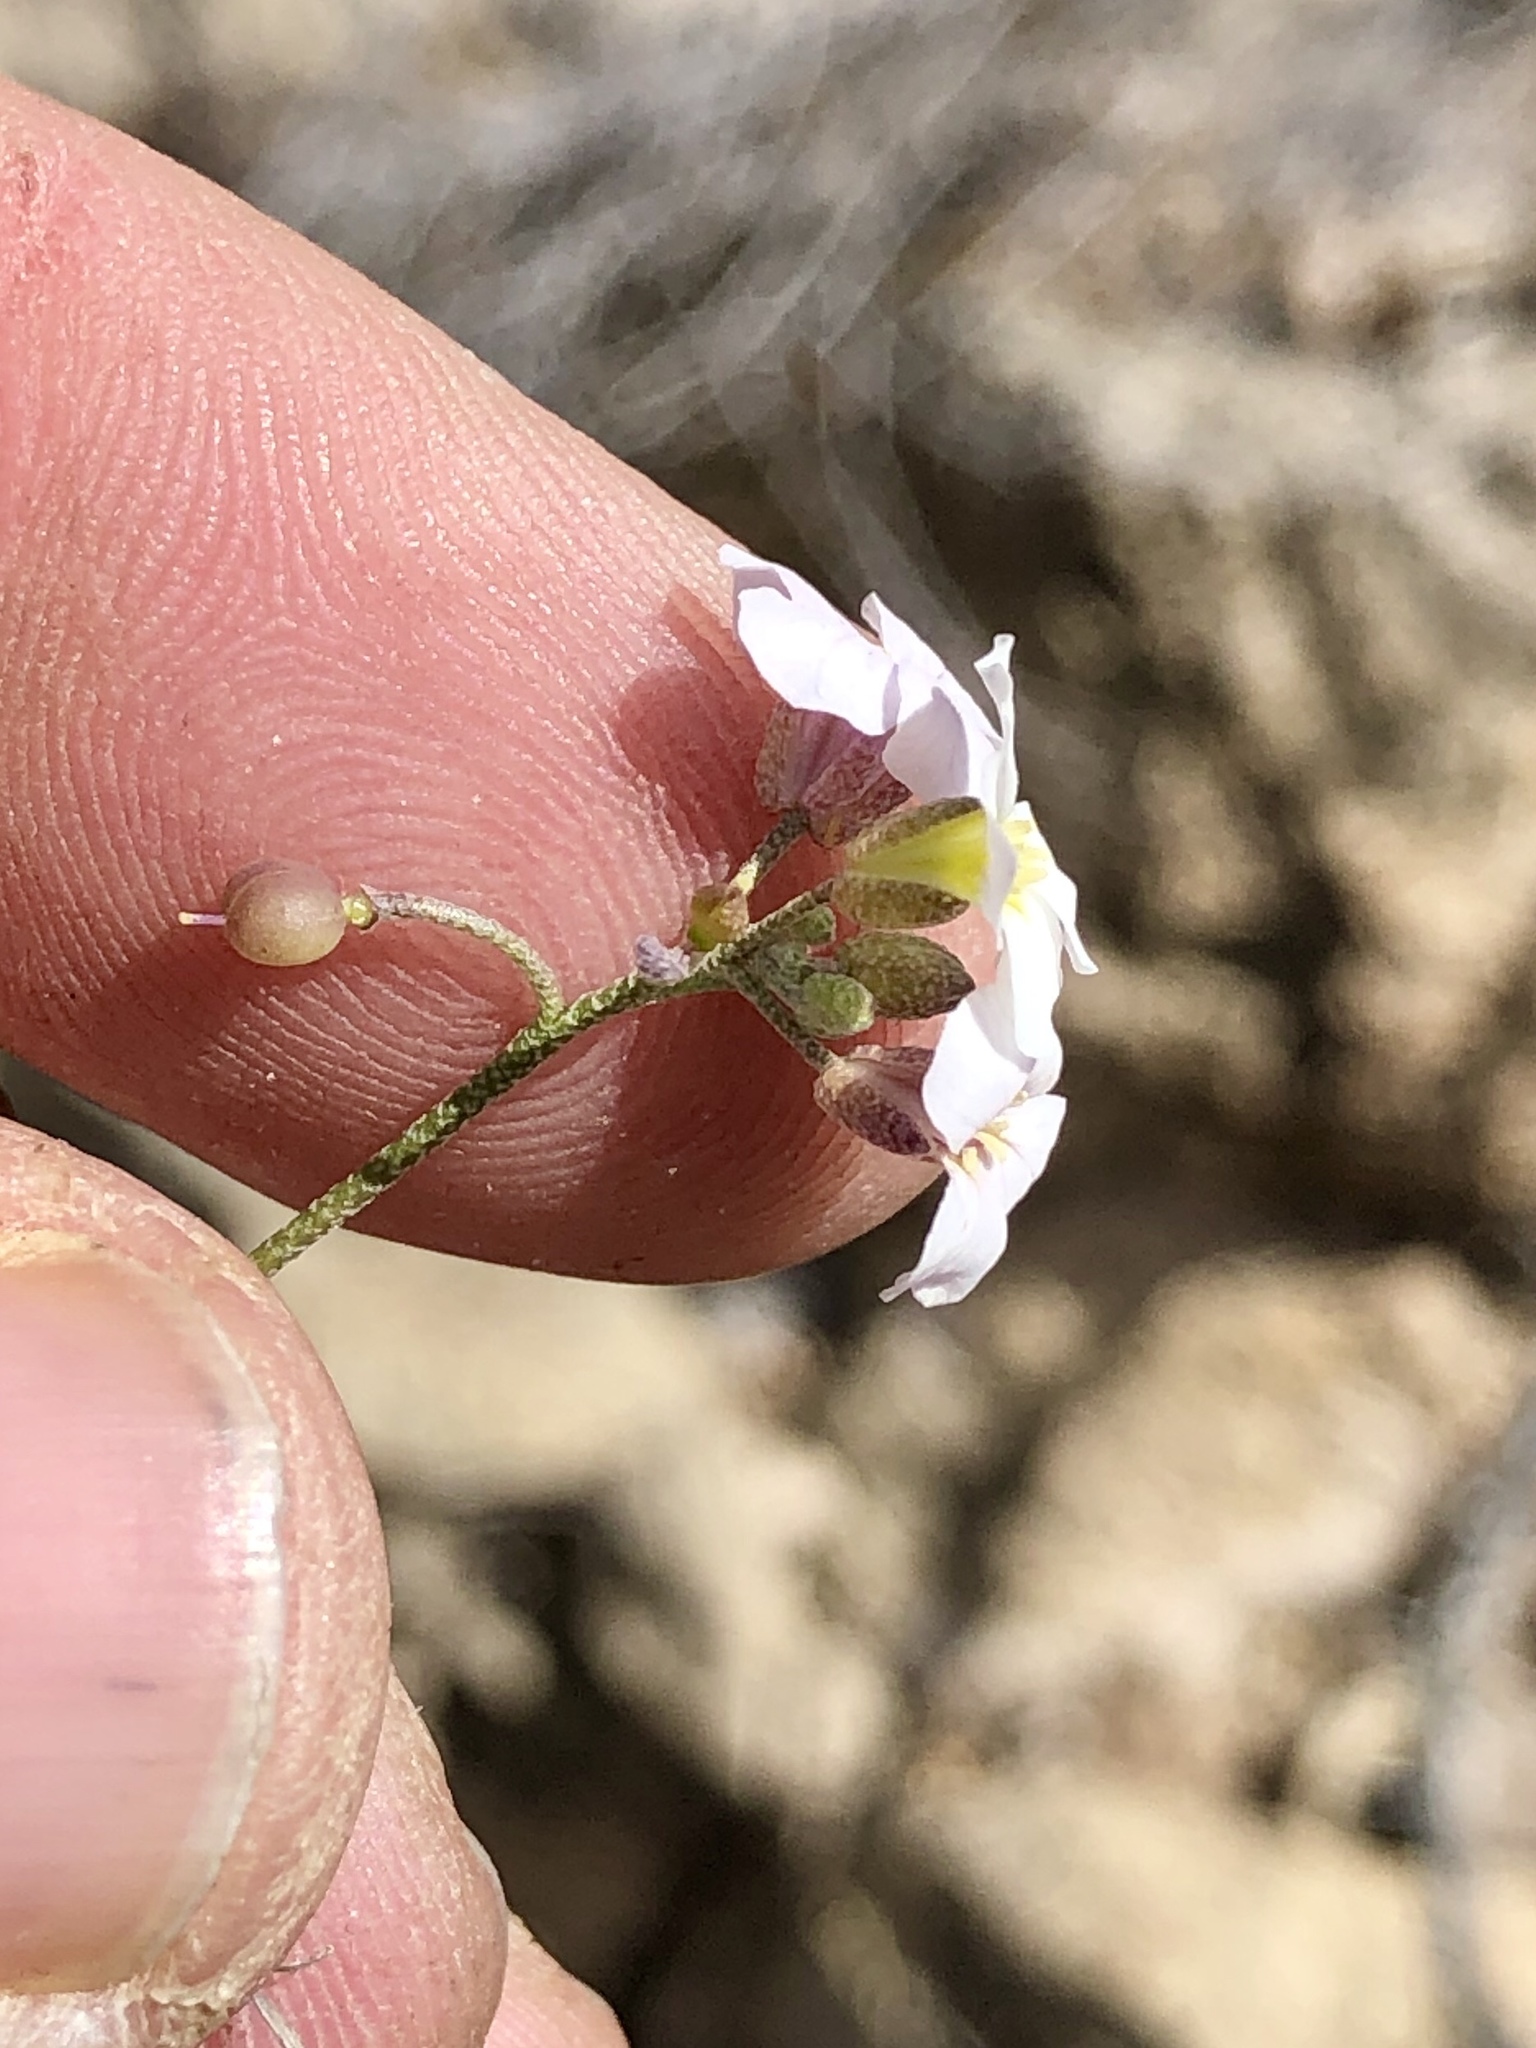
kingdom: Plantae
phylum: Tracheophyta
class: Magnoliopsida
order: Brassicales
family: Brassicaceae
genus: Physaria
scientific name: Physaria purpurea
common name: Rose bladderpod
